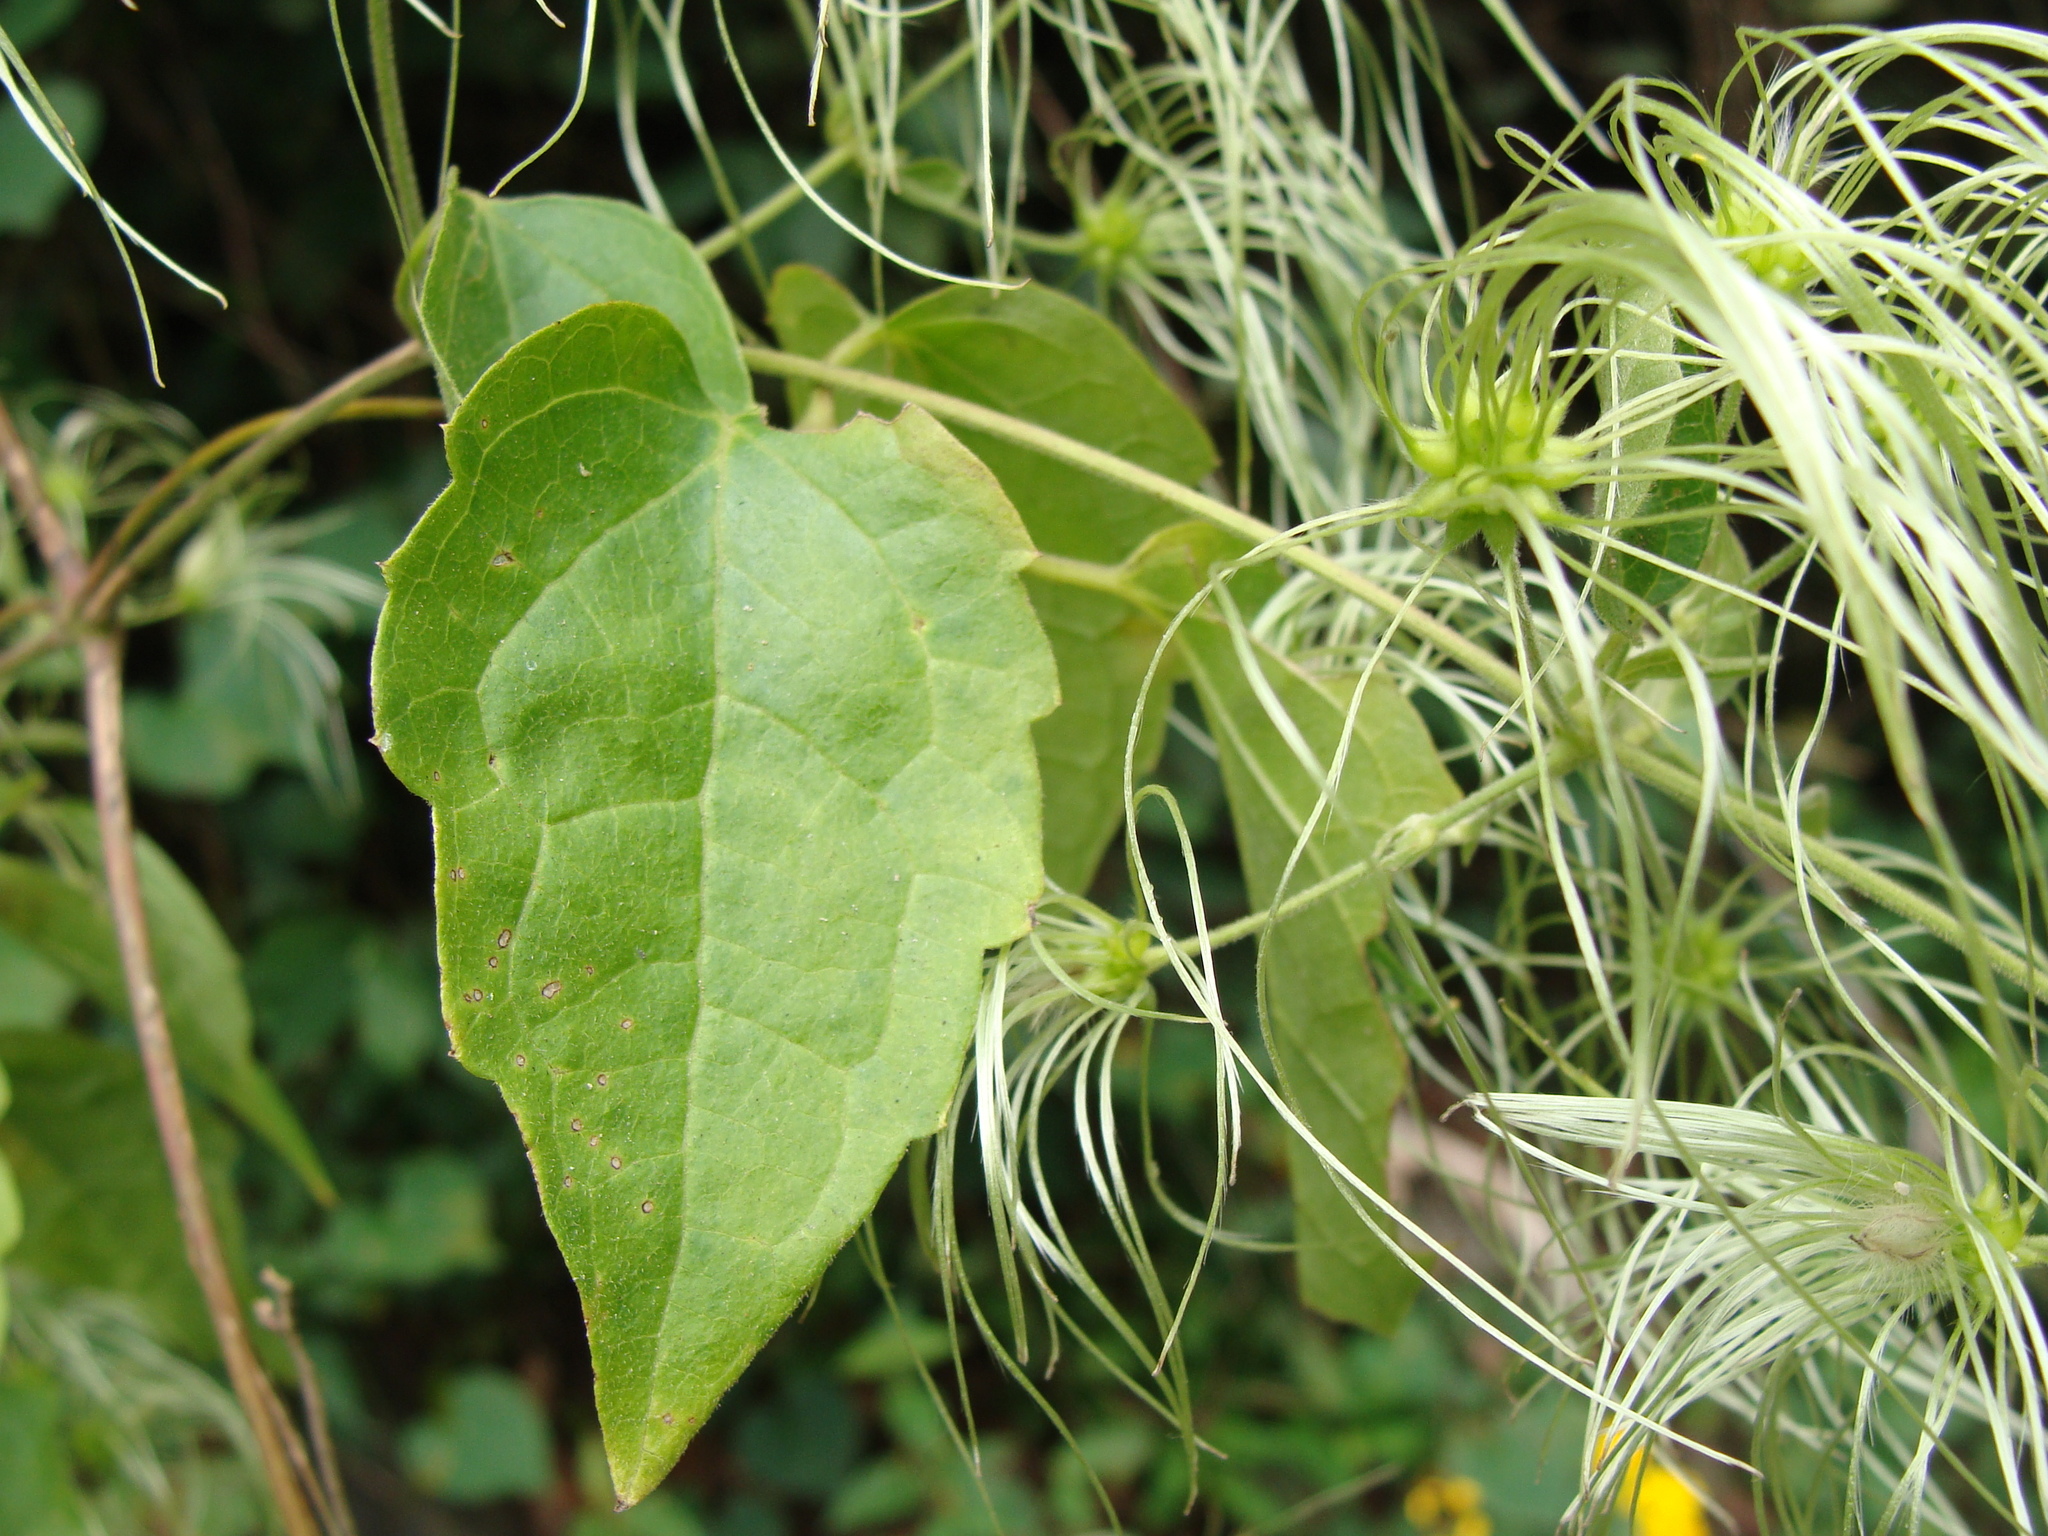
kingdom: Plantae
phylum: Tracheophyta
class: Magnoliopsida
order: Ranunculales
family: Ranunculaceae
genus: Clematis
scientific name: Clematis grossa
